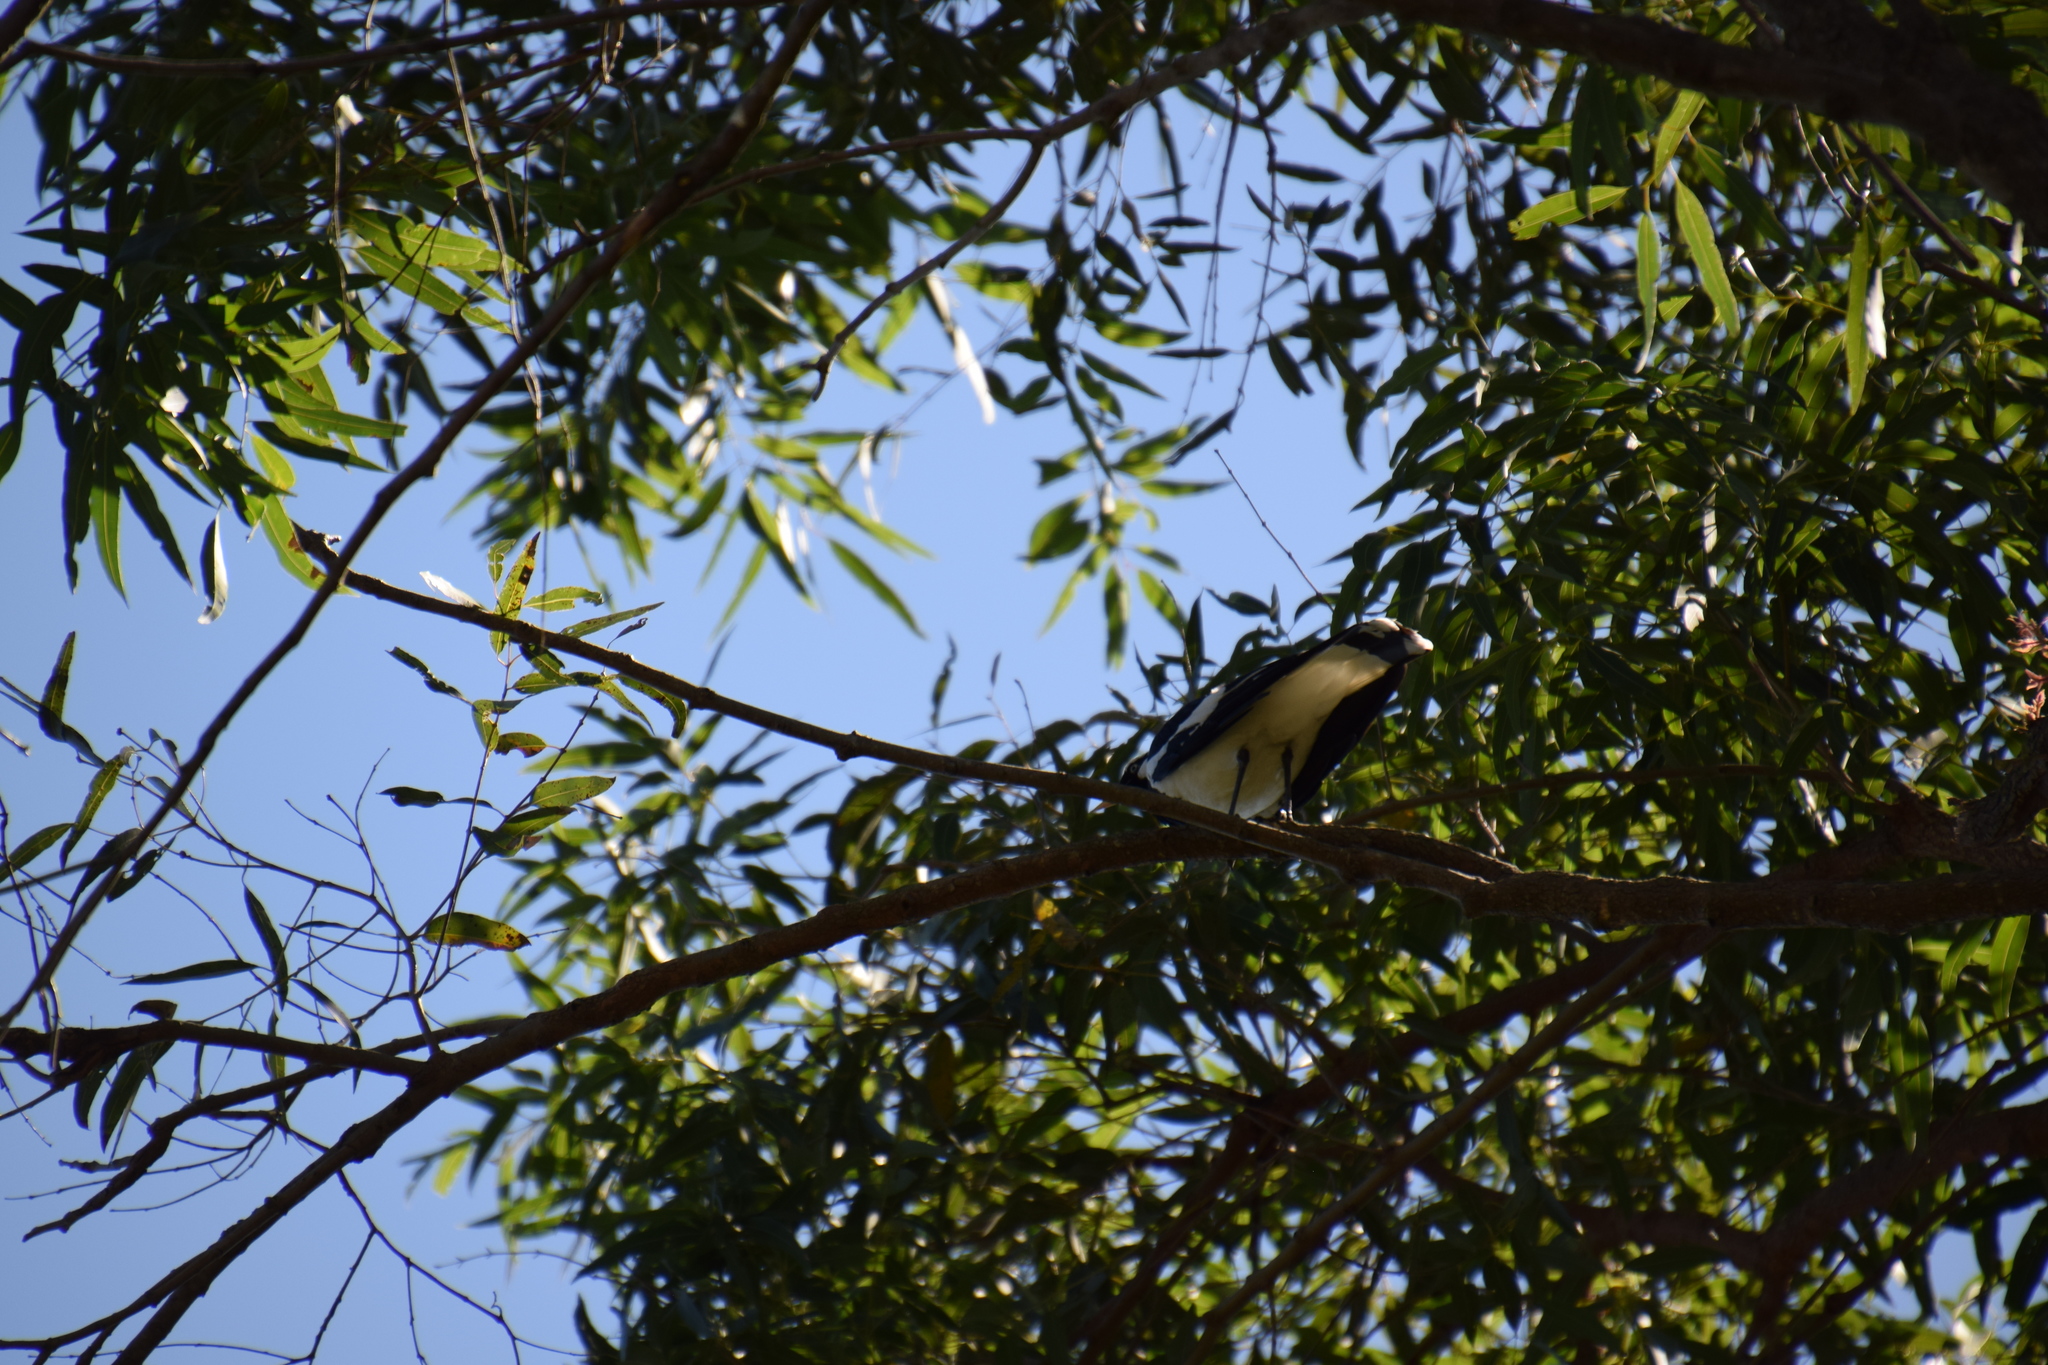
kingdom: Animalia
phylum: Chordata
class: Aves
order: Passeriformes
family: Monarchidae
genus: Grallina
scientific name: Grallina cyanoleuca
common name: Magpie-lark
